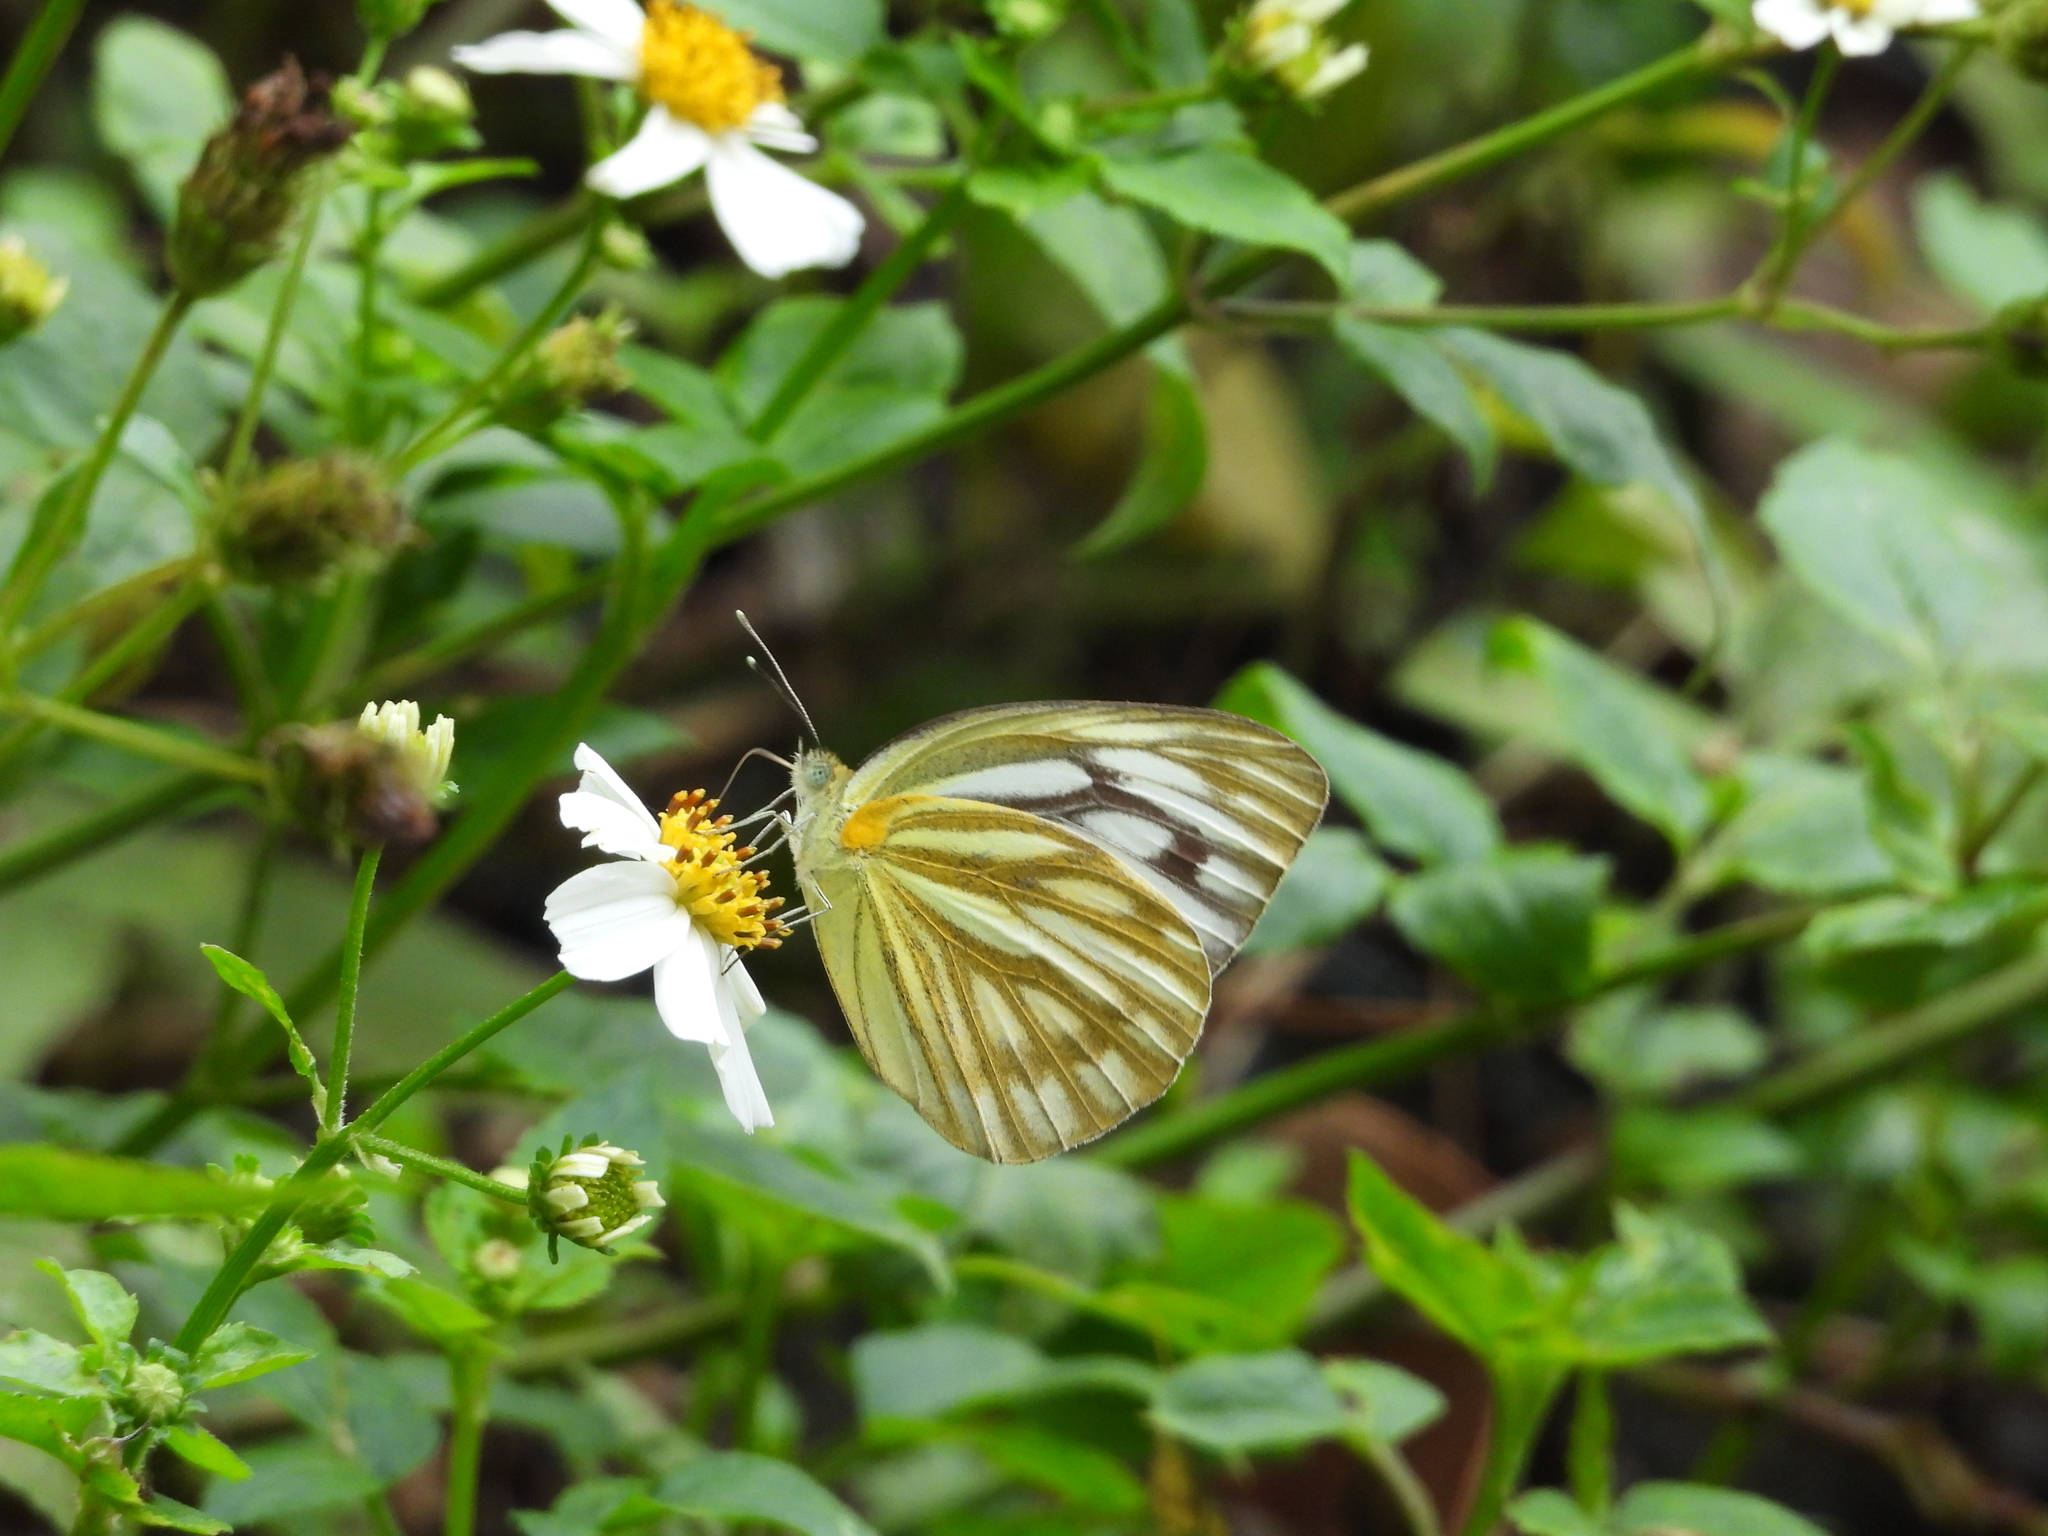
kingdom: Animalia
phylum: Arthropoda
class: Insecta
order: Lepidoptera
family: Pieridae
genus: Cepora
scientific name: Cepora nerissa
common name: Common gull
